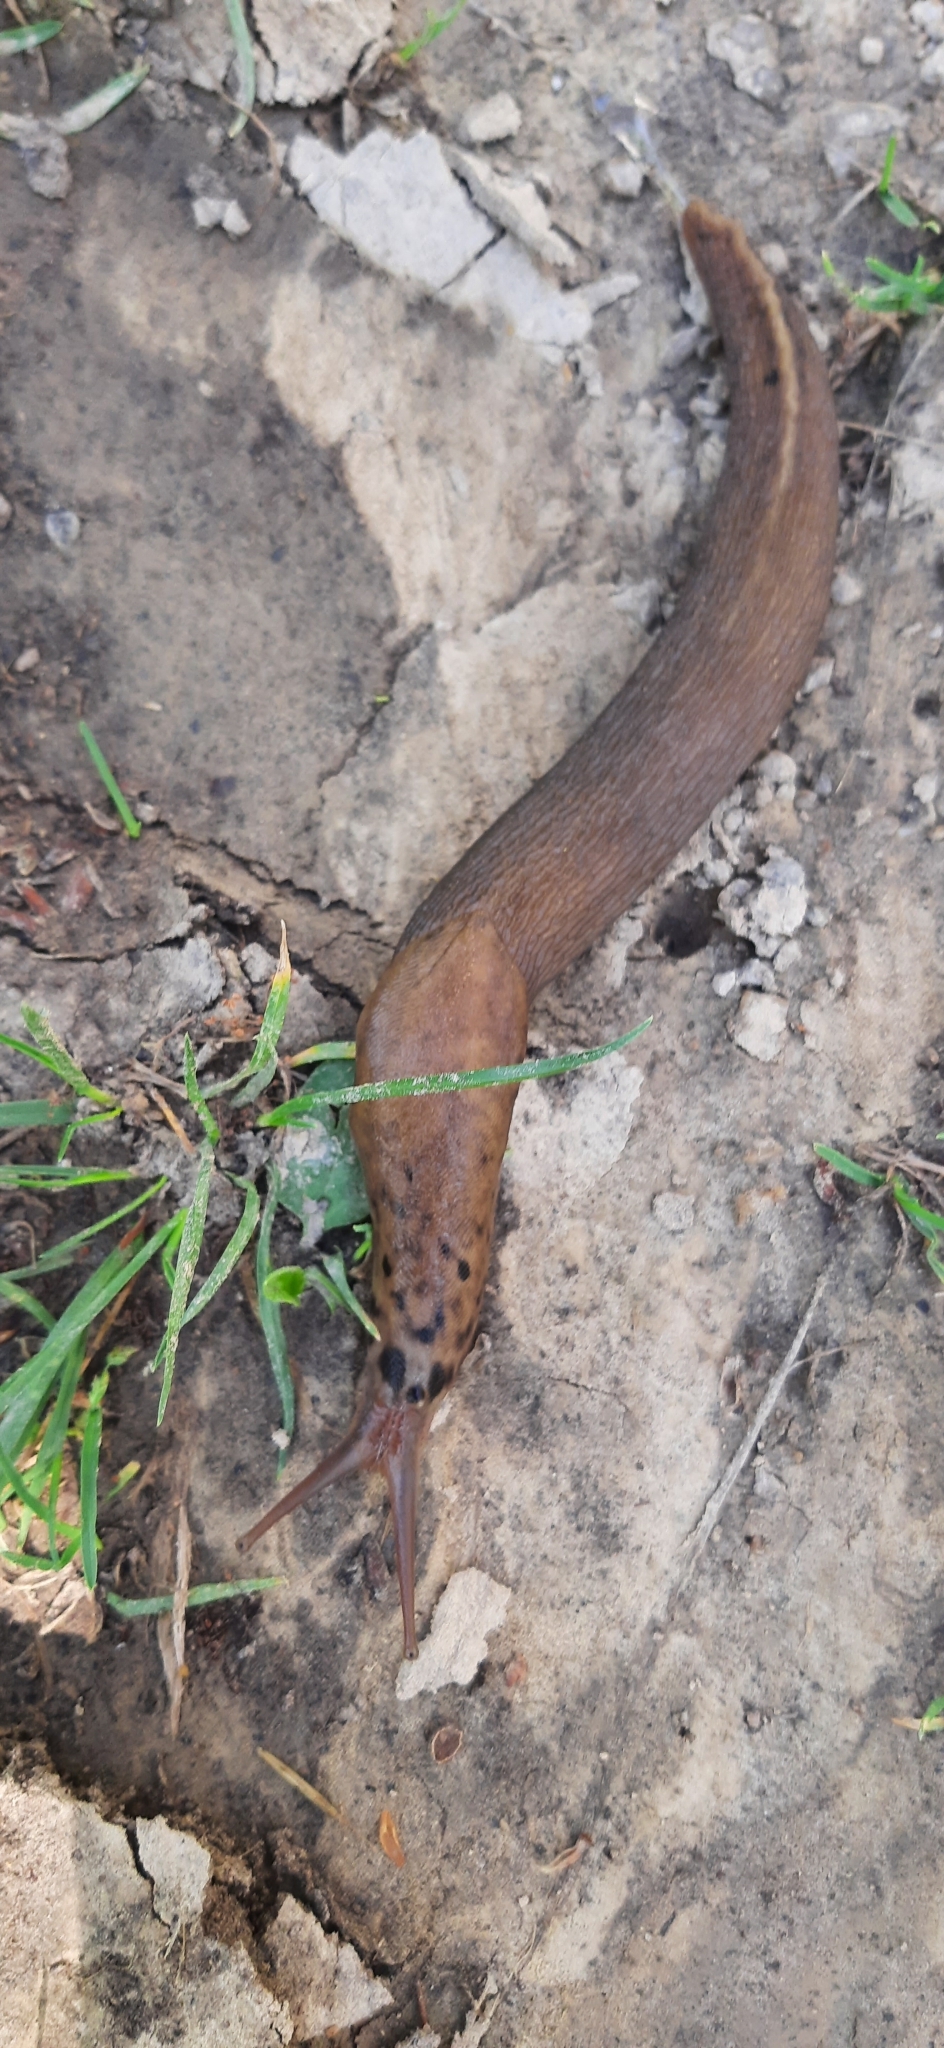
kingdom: Animalia
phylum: Mollusca
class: Gastropoda
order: Stylommatophora
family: Limacidae
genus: Limax
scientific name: Limax maximus
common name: Great grey slug
